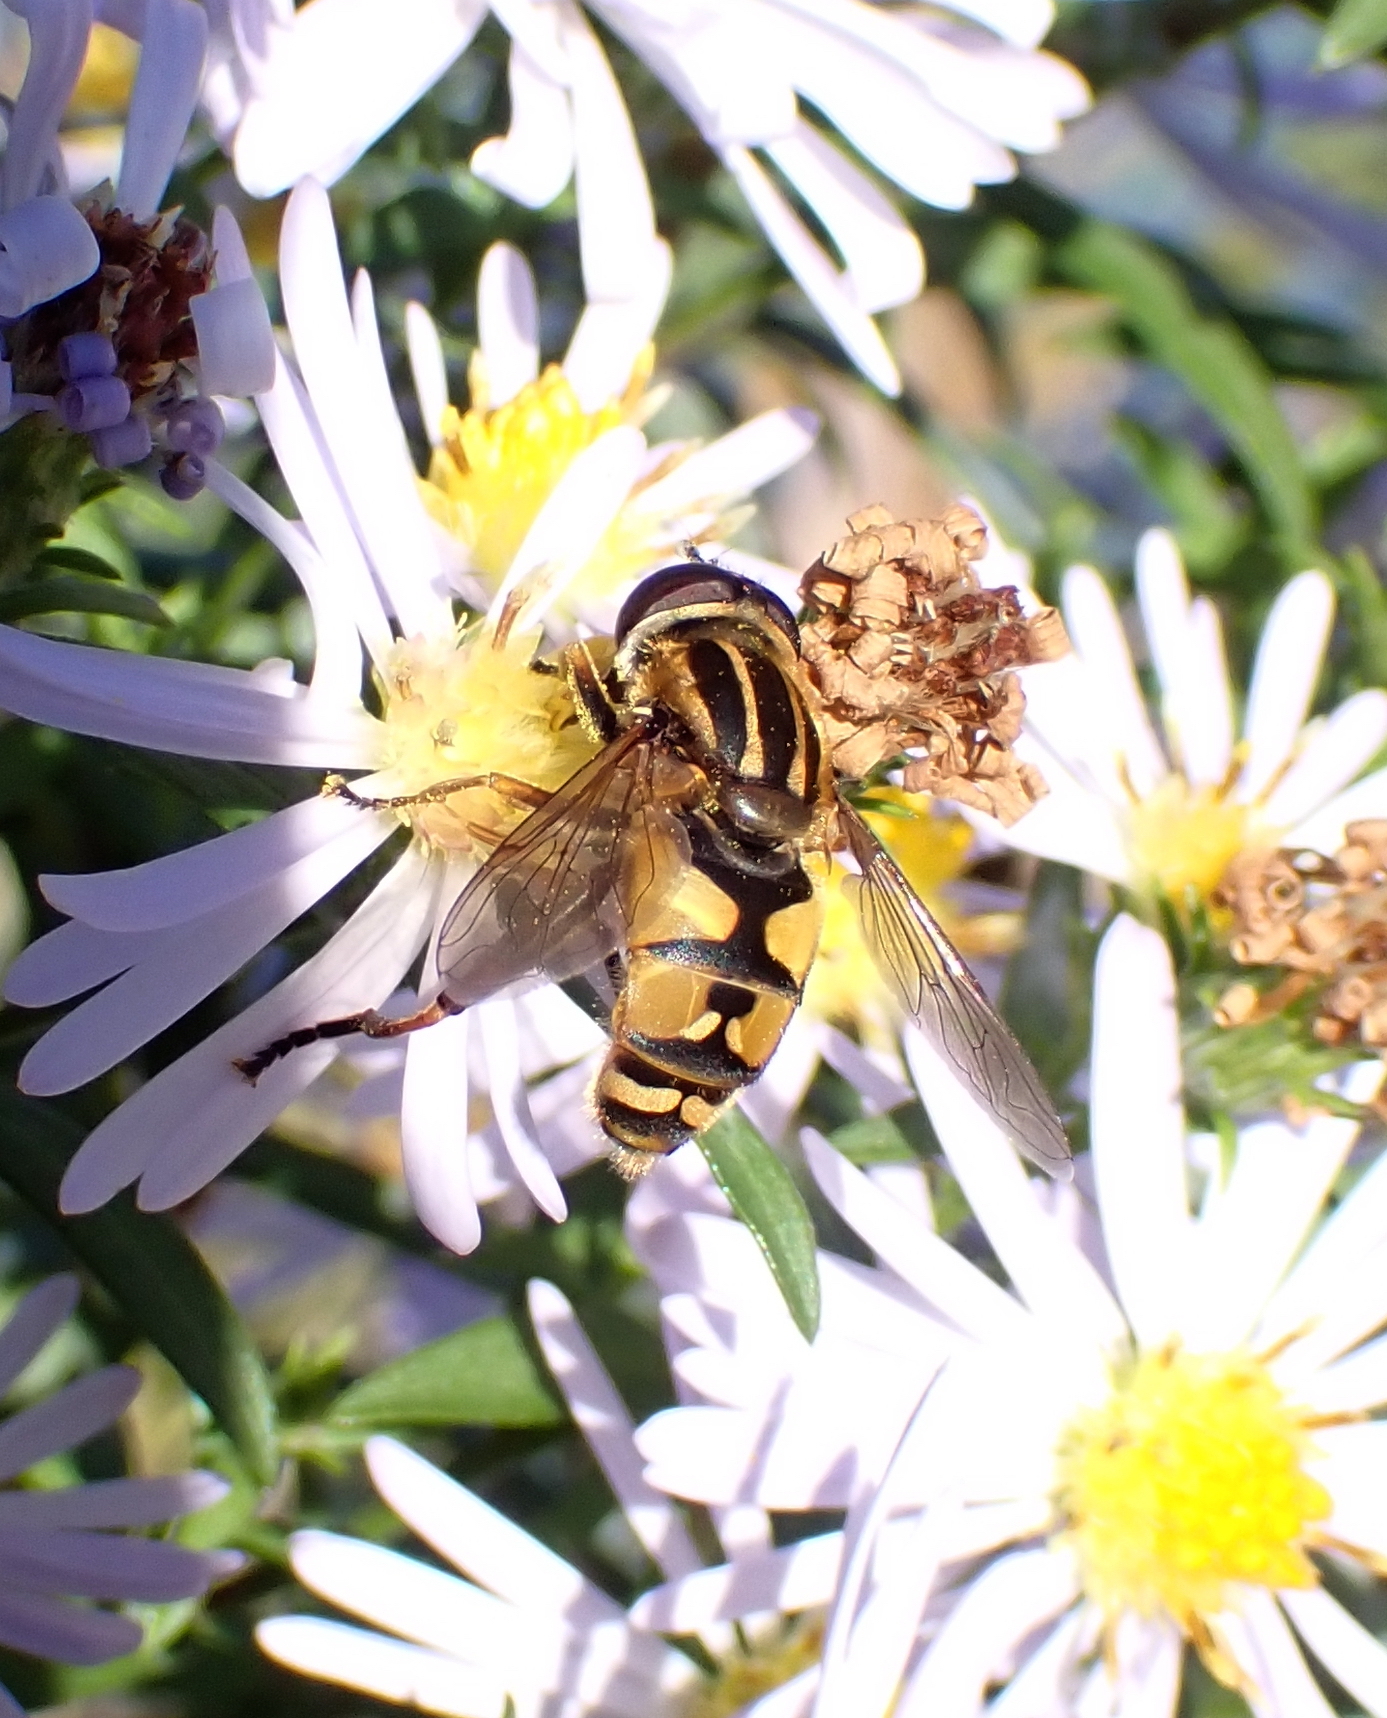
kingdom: Animalia
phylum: Arthropoda
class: Insecta
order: Diptera
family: Syrphidae
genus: Helophilus
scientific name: Helophilus pendulus
